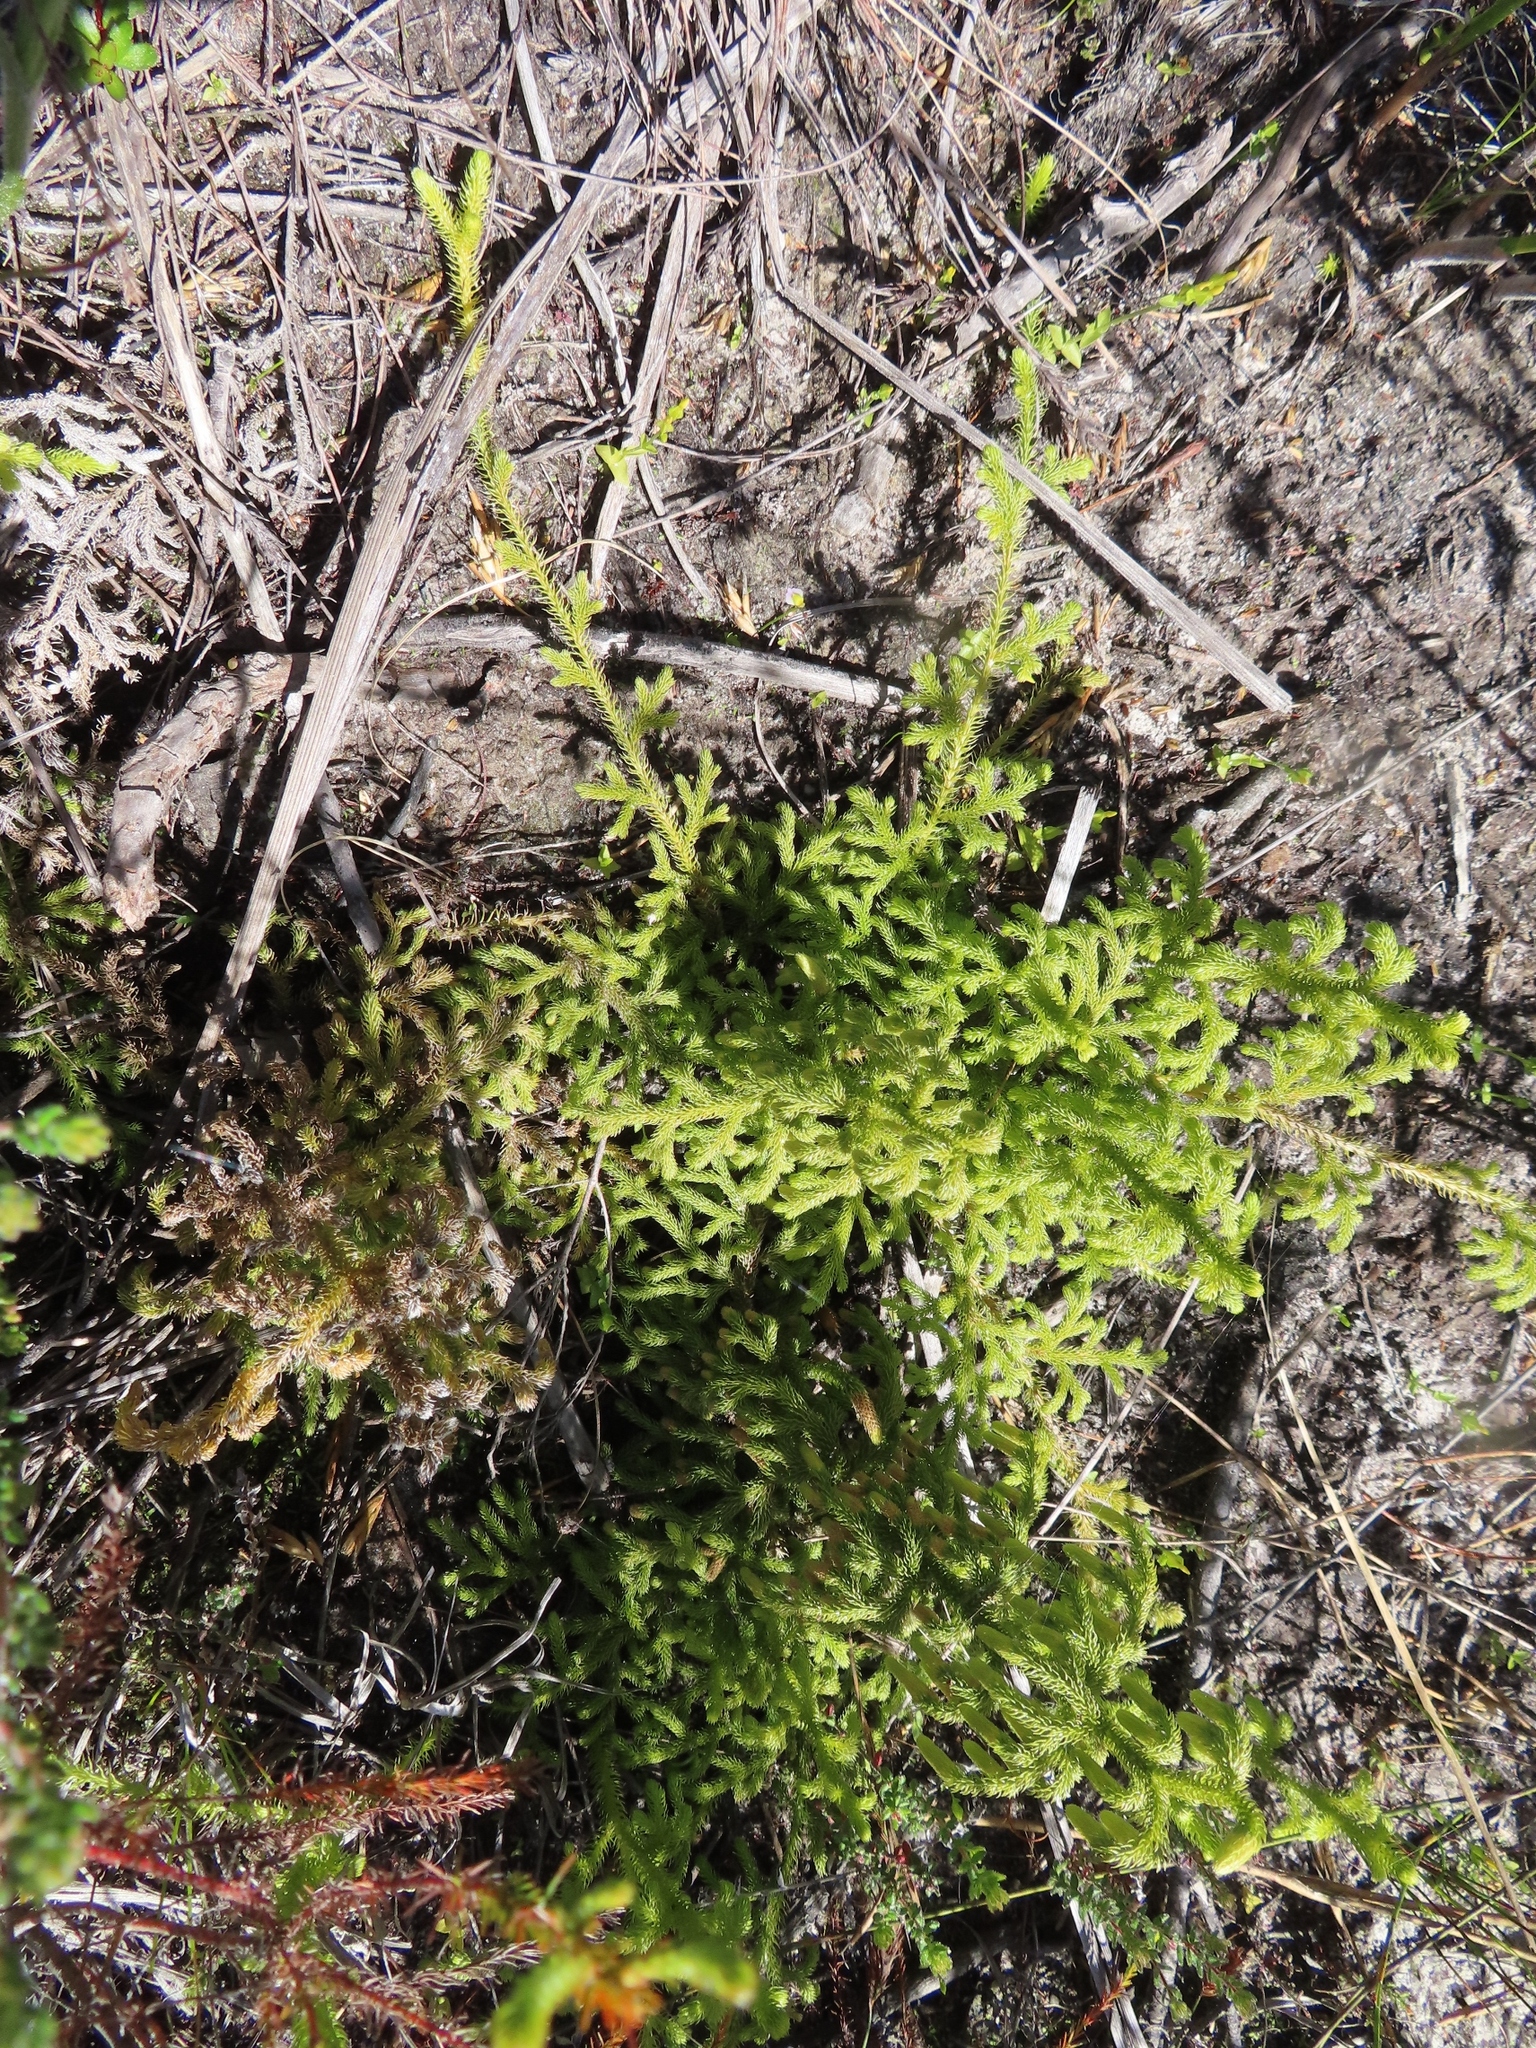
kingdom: Plantae
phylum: Tracheophyta
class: Lycopodiopsida
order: Lycopodiales
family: Lycopodiaceae
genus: Palhinhaea
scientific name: Palhinhaea cernua
